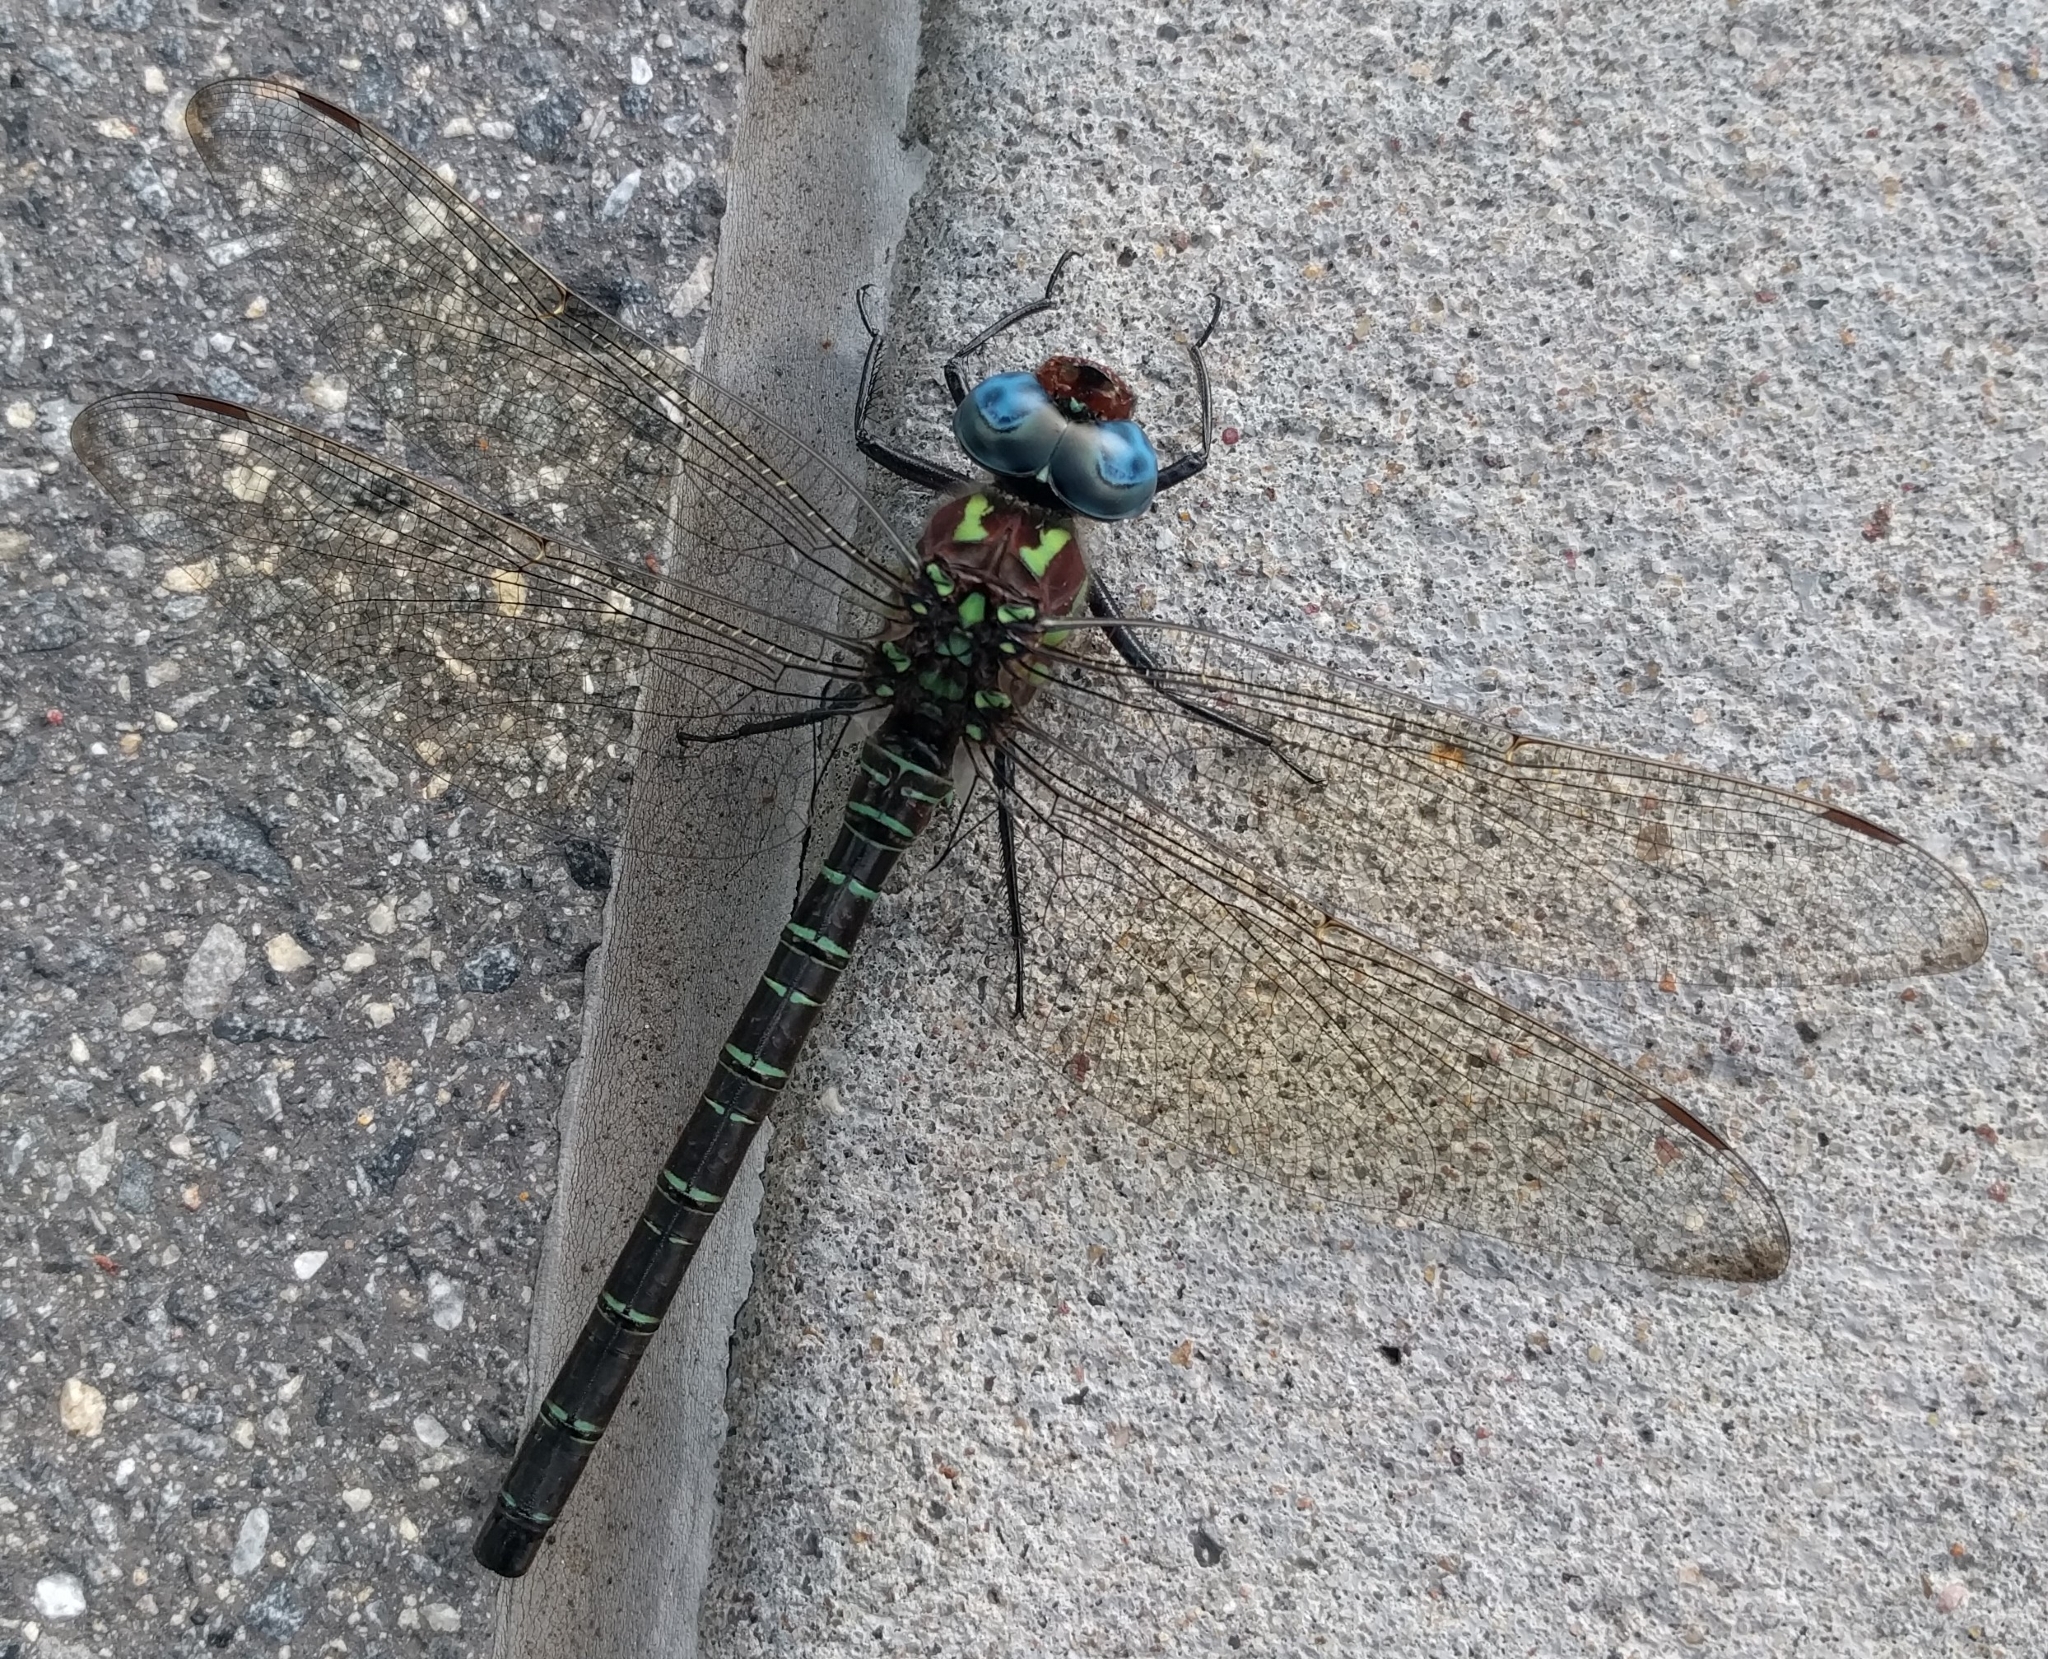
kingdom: Animalia
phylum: Arthropoda
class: Insecta
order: Odonata
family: Aeshnidae
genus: Epiaeschna
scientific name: Epiaeschna heros
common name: Swamp darner
